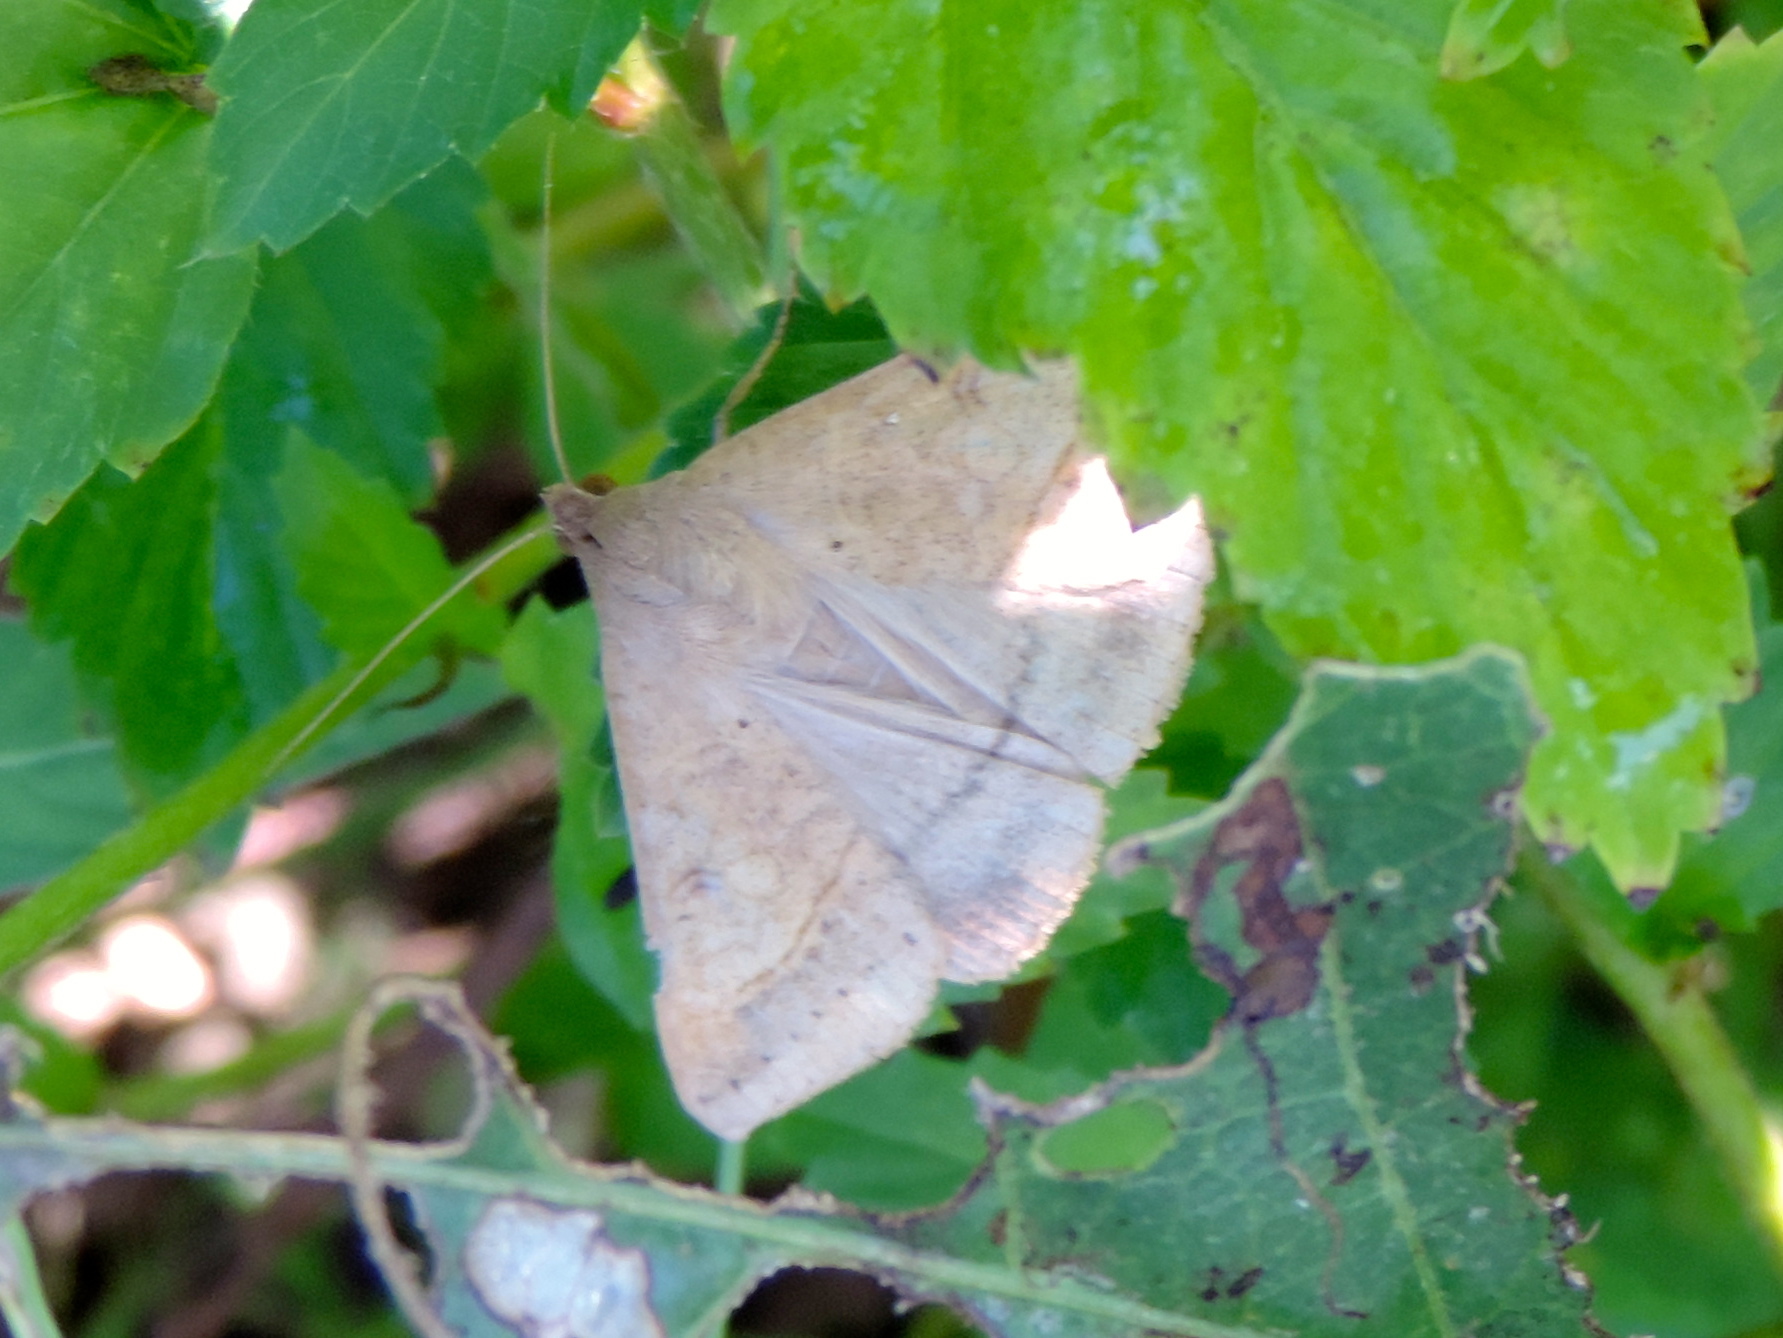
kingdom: Animalia
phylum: Arthropoda
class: Insecta
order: Lepidoptera
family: Erebidae
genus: Mocis
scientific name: Mocis
